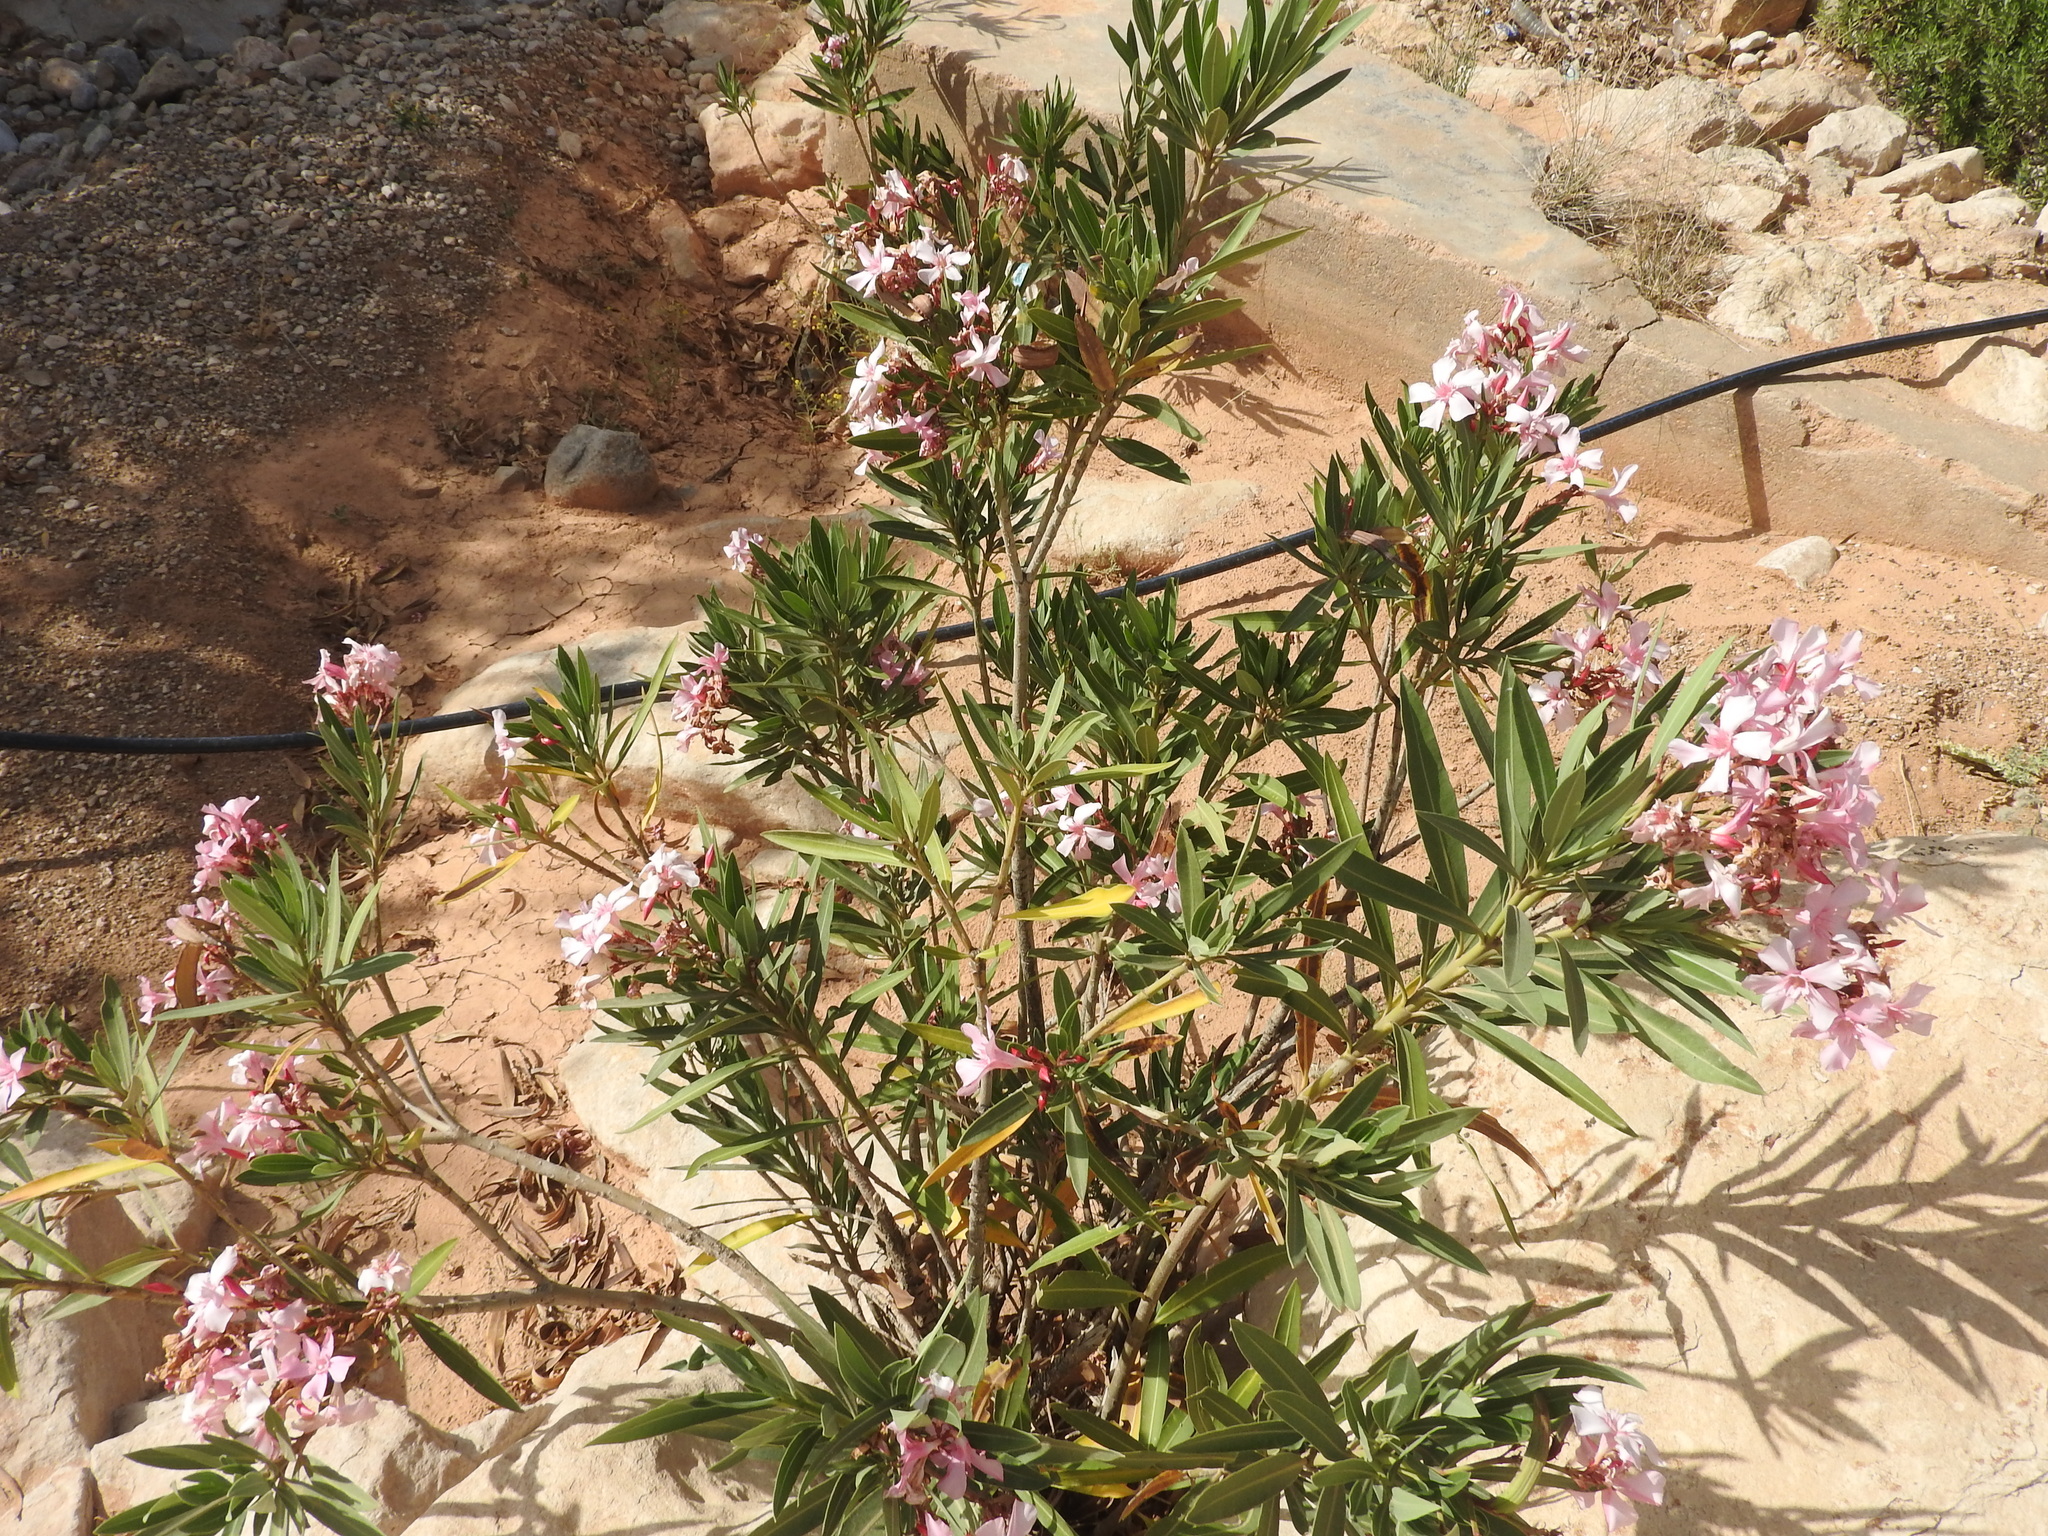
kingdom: Plantae
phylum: Tracheophyta
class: Magnoliopsida
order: Gentianales
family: Apocynaceae
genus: Nerium
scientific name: Nerium oleander
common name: Oleander
